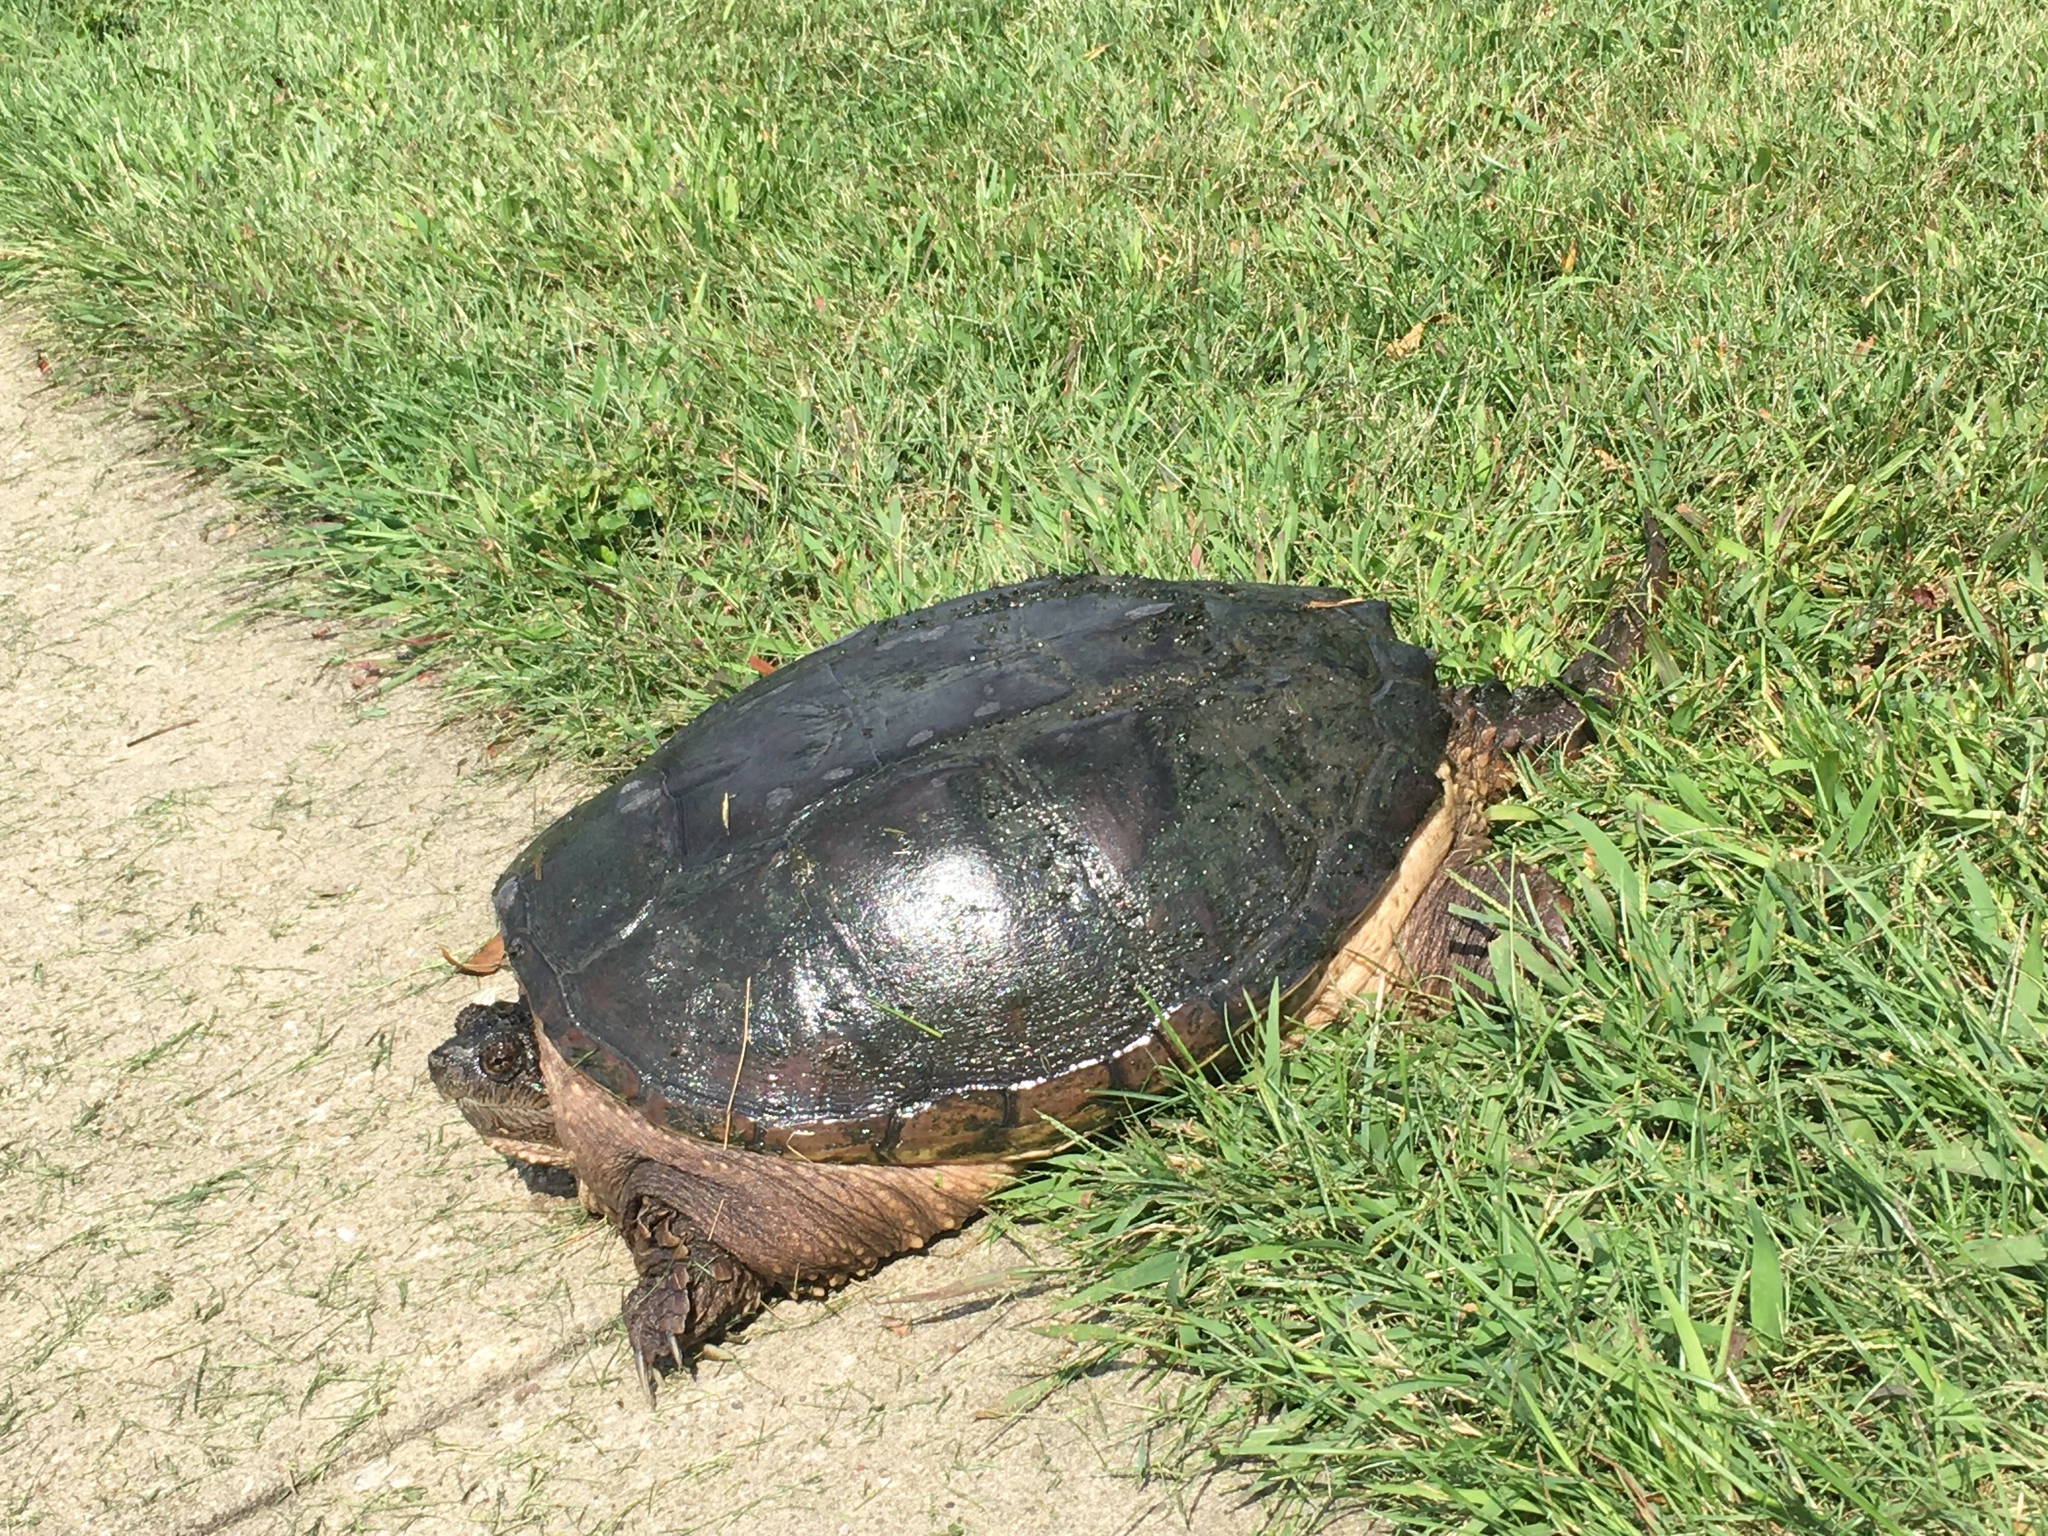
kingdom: Animalia
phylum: Chordata
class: Testudines
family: Chelydridae
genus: Chelydra
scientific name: Chelydra serpentina
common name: Common snapping turtle
